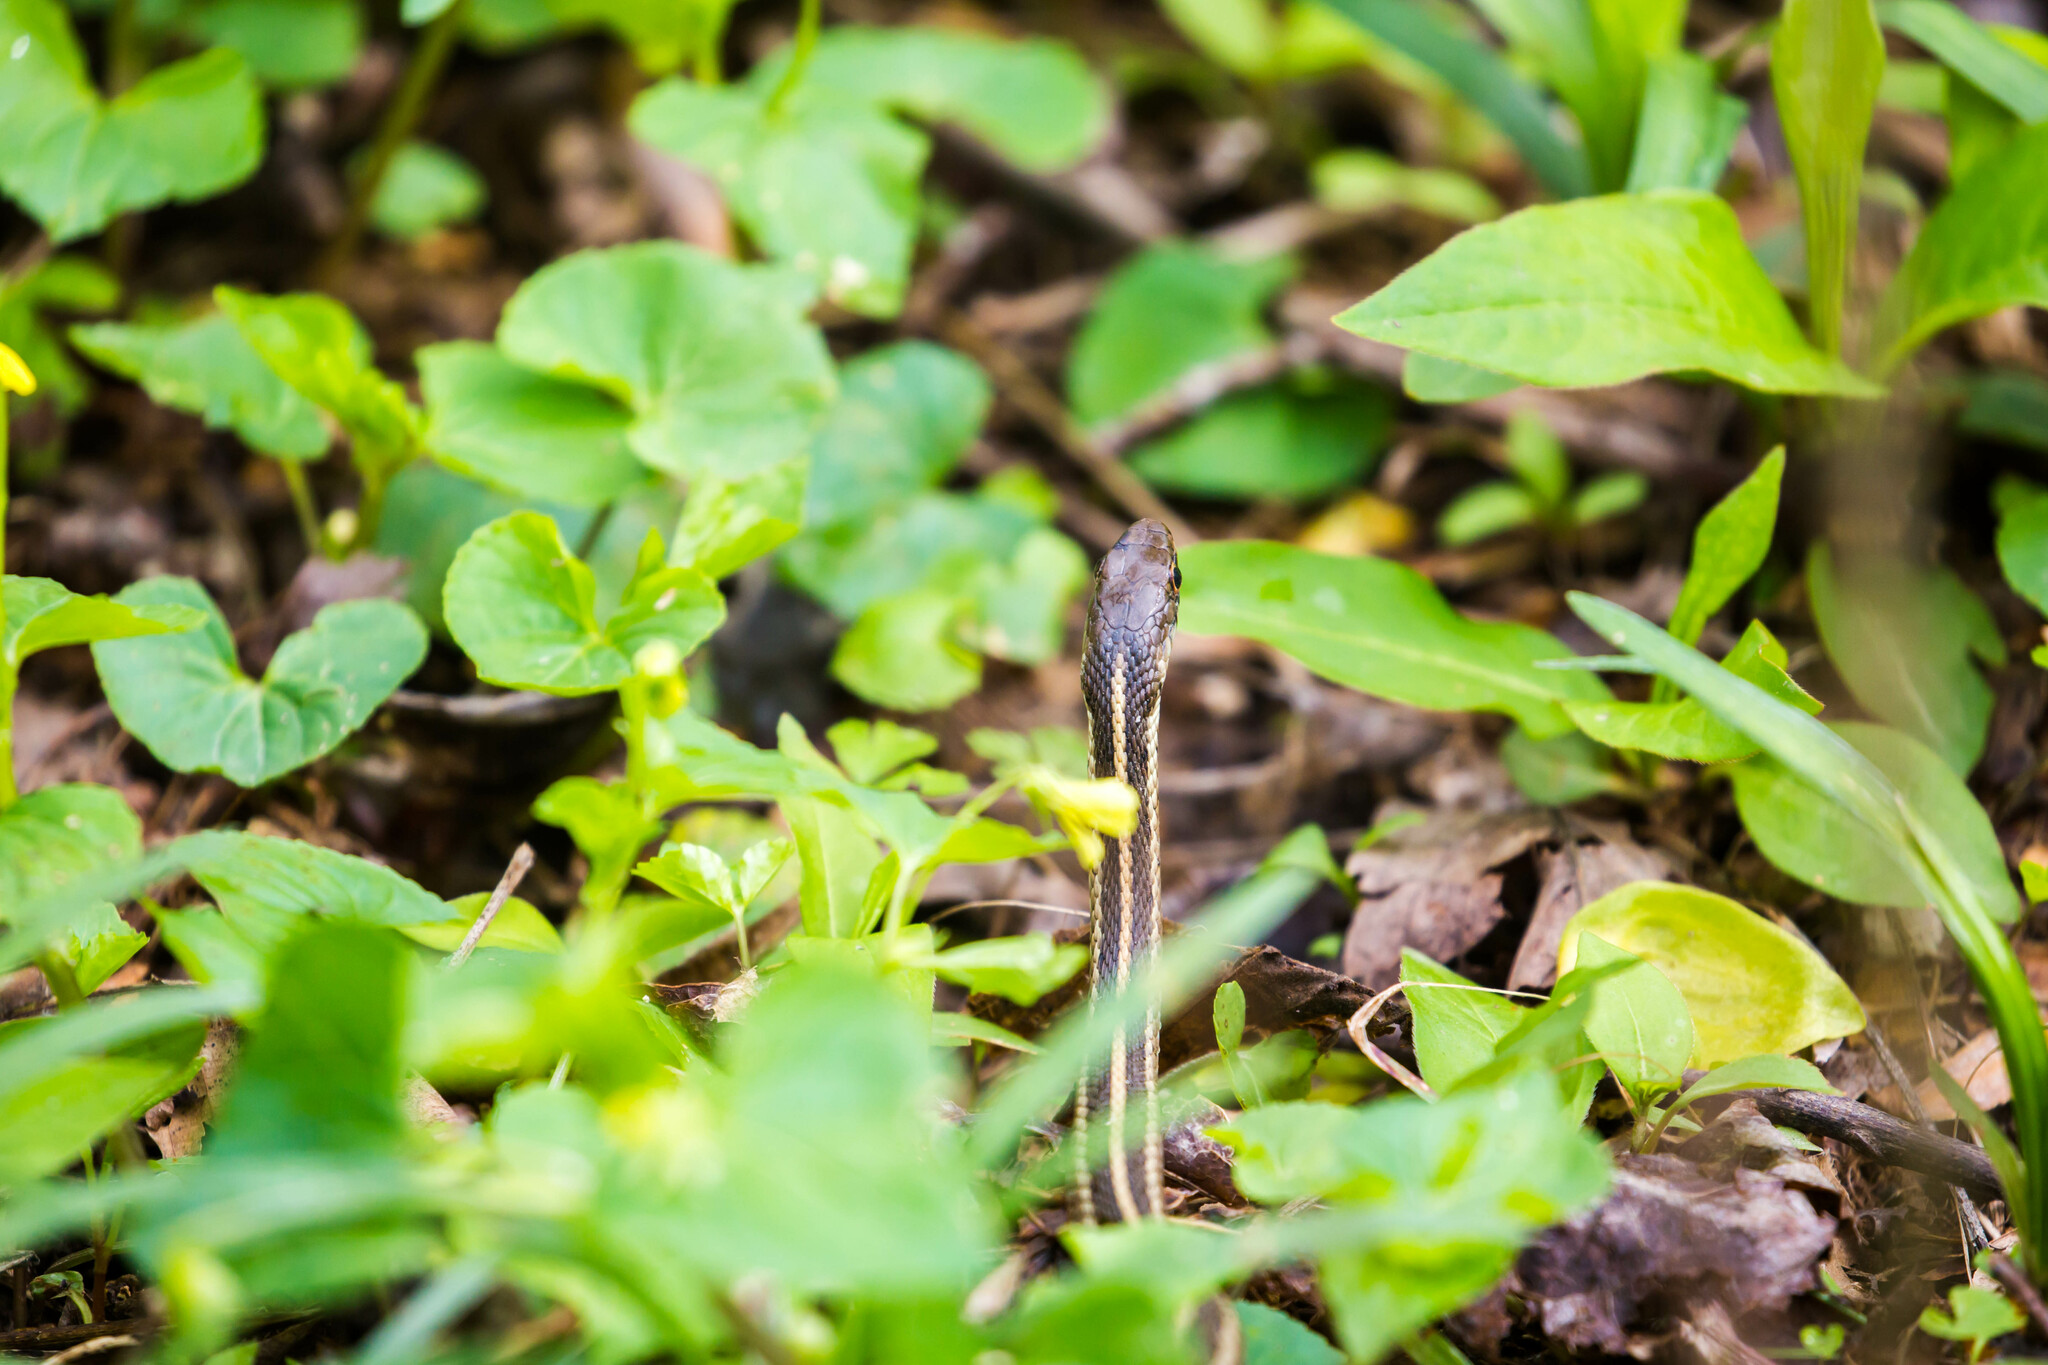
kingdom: Animalia
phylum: Chordata
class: Squamata
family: Colubridae
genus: Thamnophis
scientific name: Thamnophis sirtalis
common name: Common garter snake
